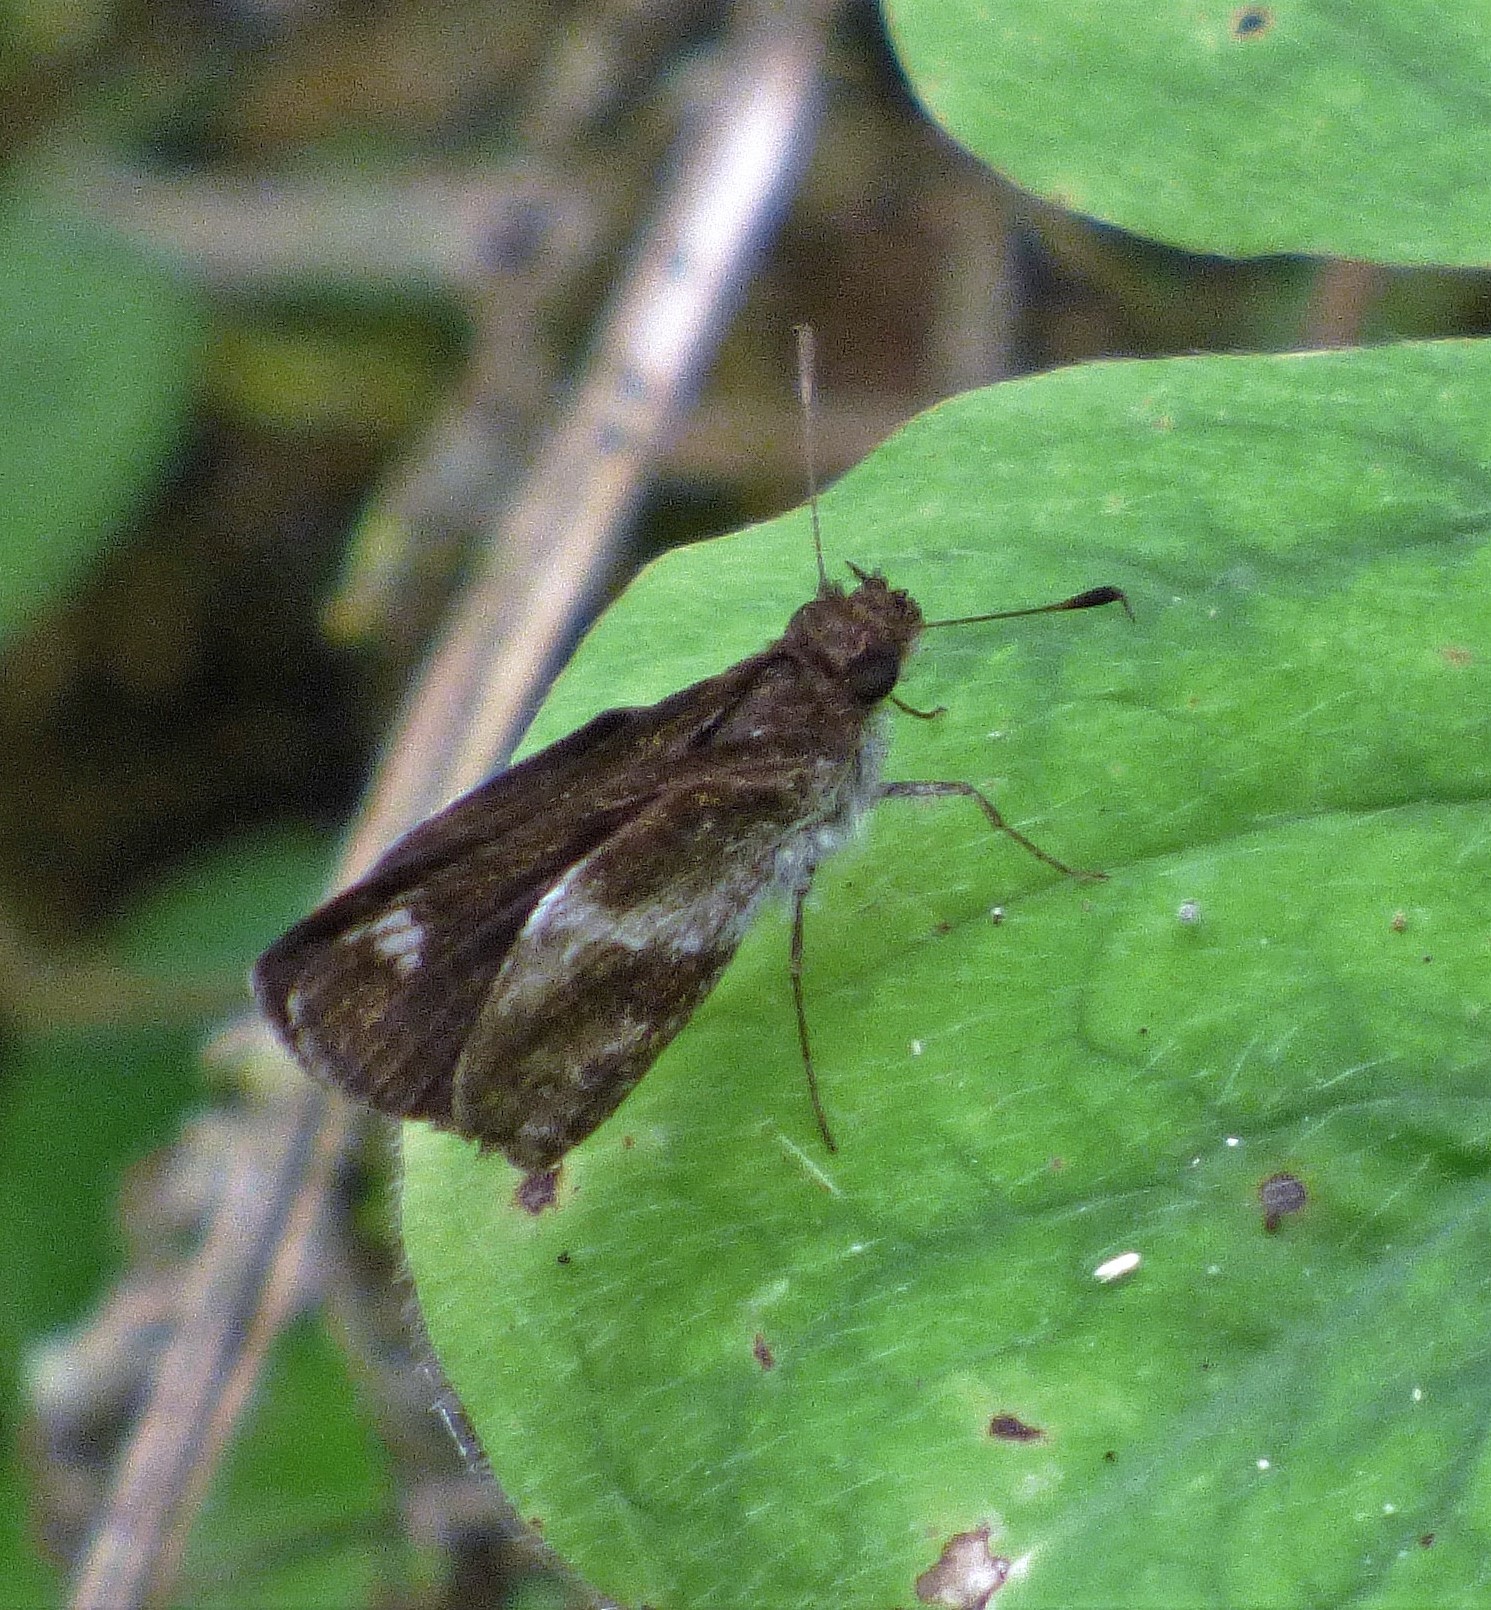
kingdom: Animalia
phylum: Arthropoda
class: Insecta
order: Lepidoptera
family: Hesperiidae
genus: Callimormus
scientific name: Callimormus
